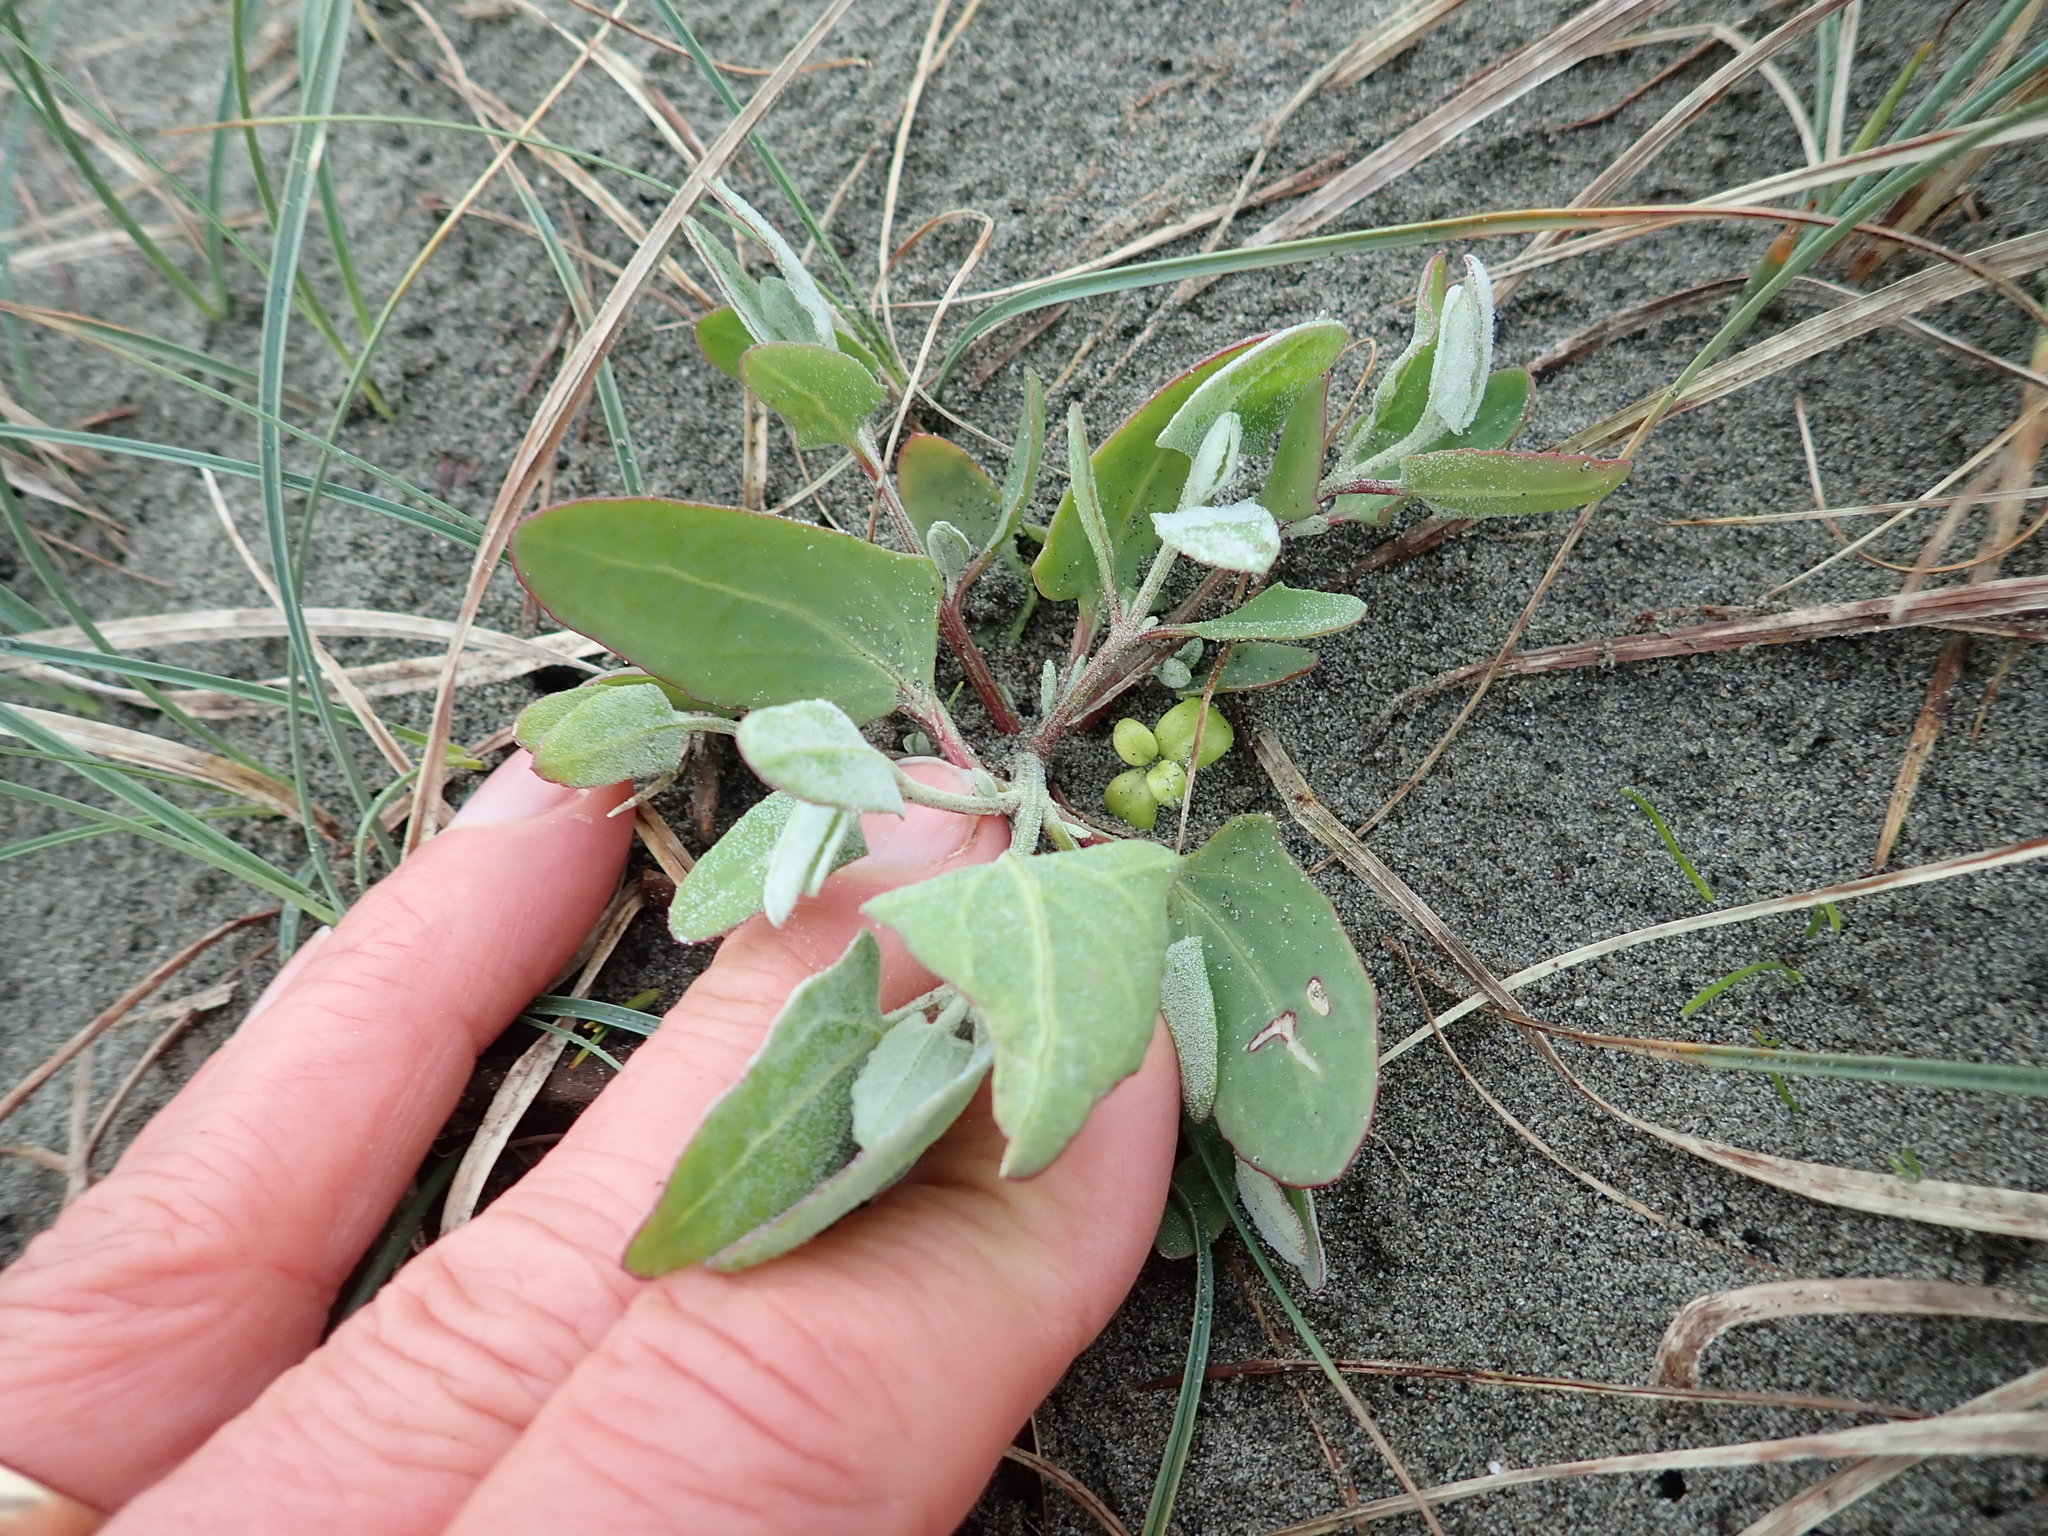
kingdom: Plantae
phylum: Tracheophyta
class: Magnoliopsida
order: Caryophyllales
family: Amaranthaceae
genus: Atriplex
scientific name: Atriplex prostrata
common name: Spear-leaved orache
